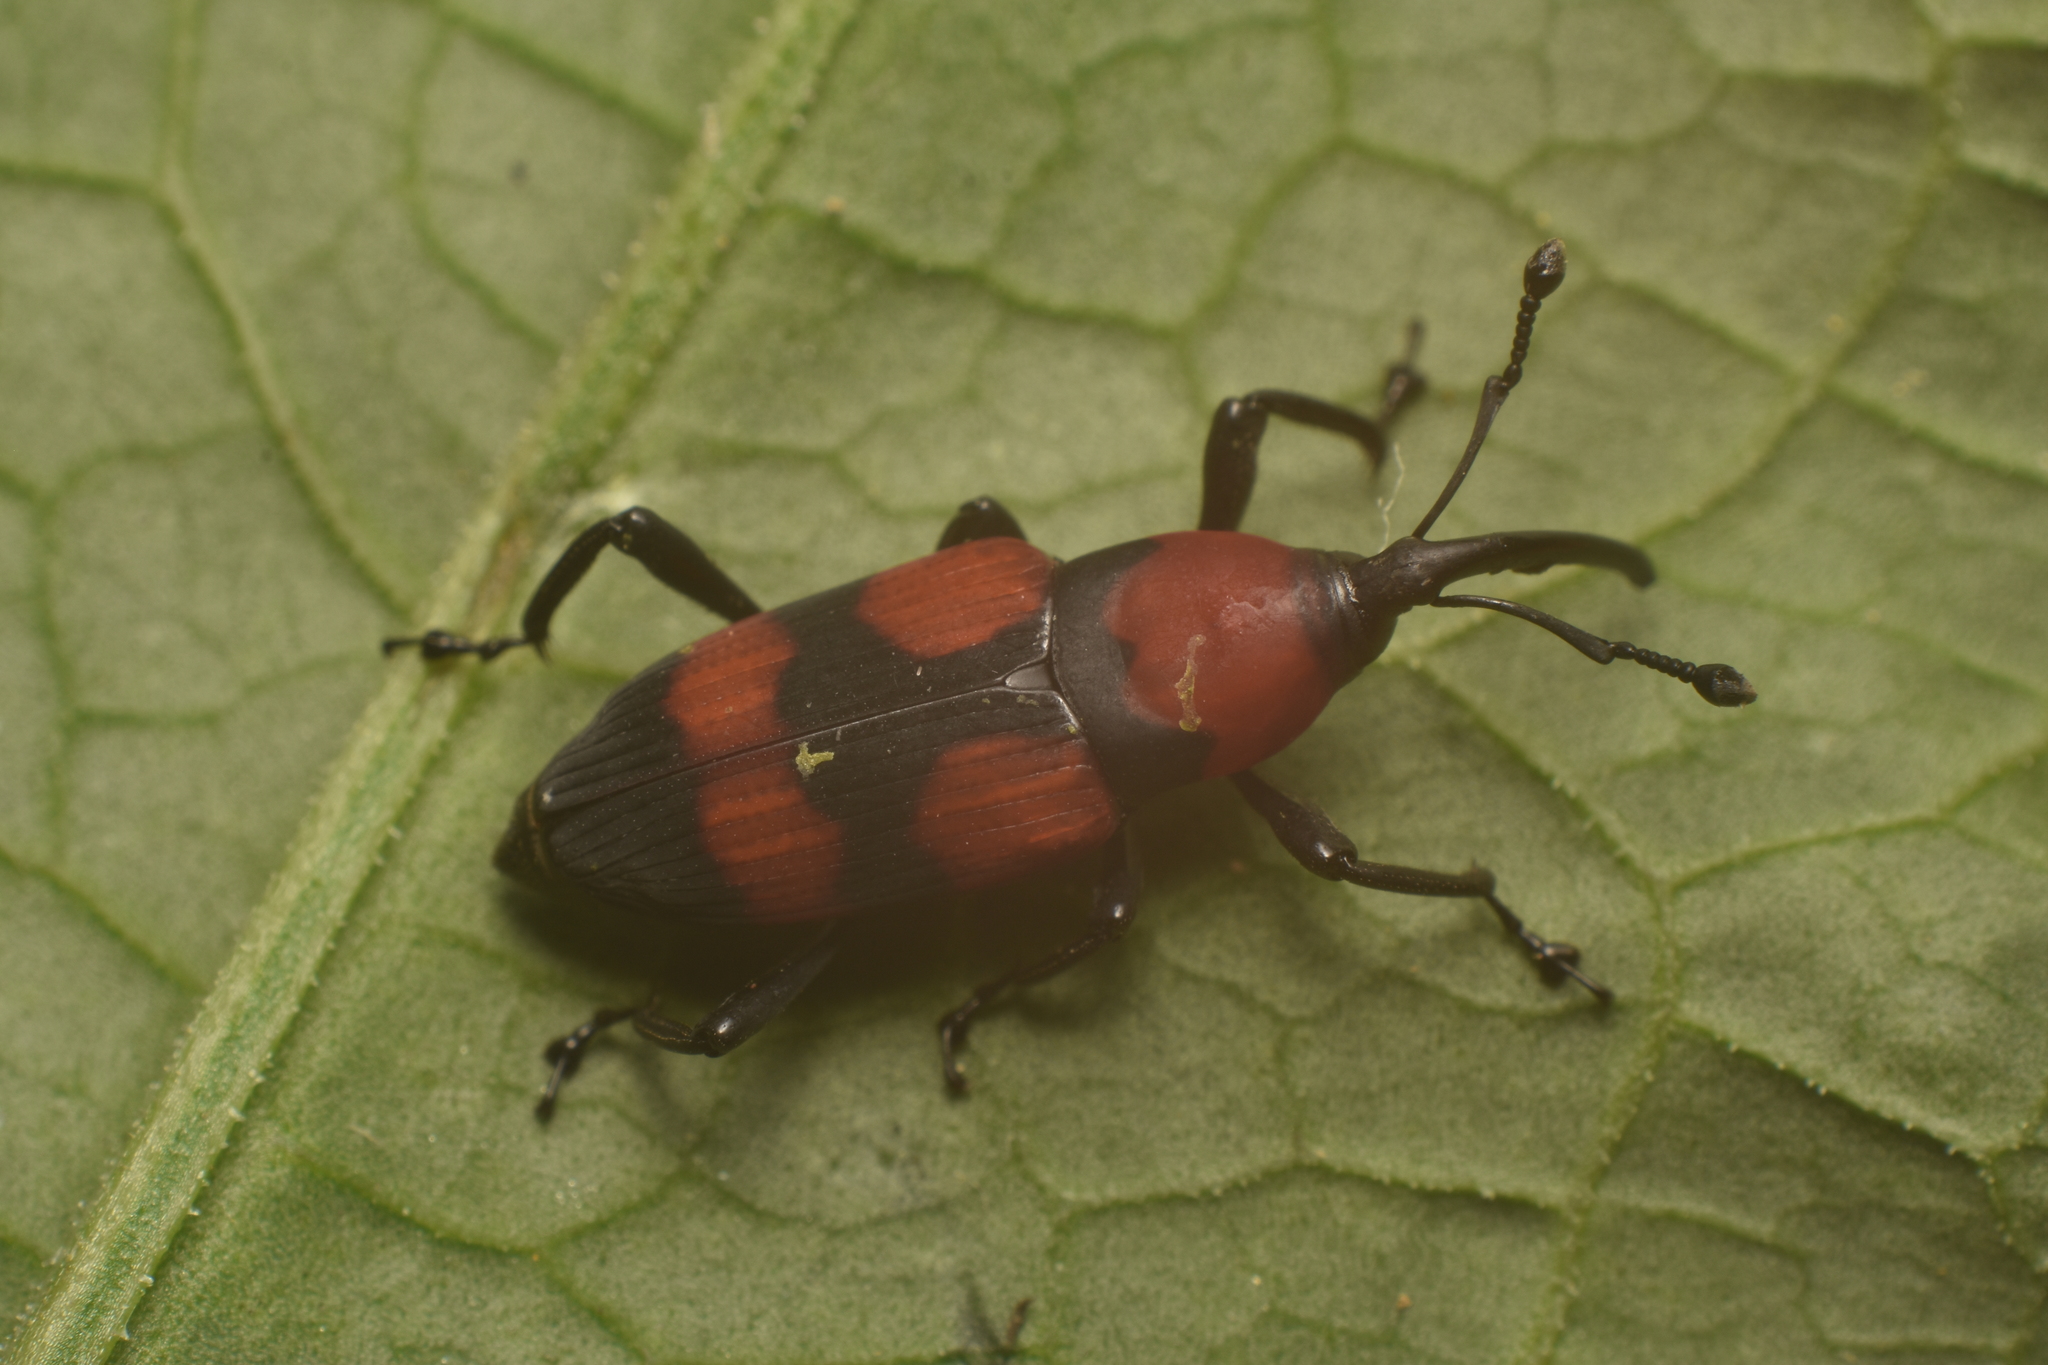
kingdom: Animalia
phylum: Arthropoda
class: Insecta
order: Coleoptera
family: Dryophthoridae
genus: Rhodobaenus
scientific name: Rhodobaenus bicinctus
